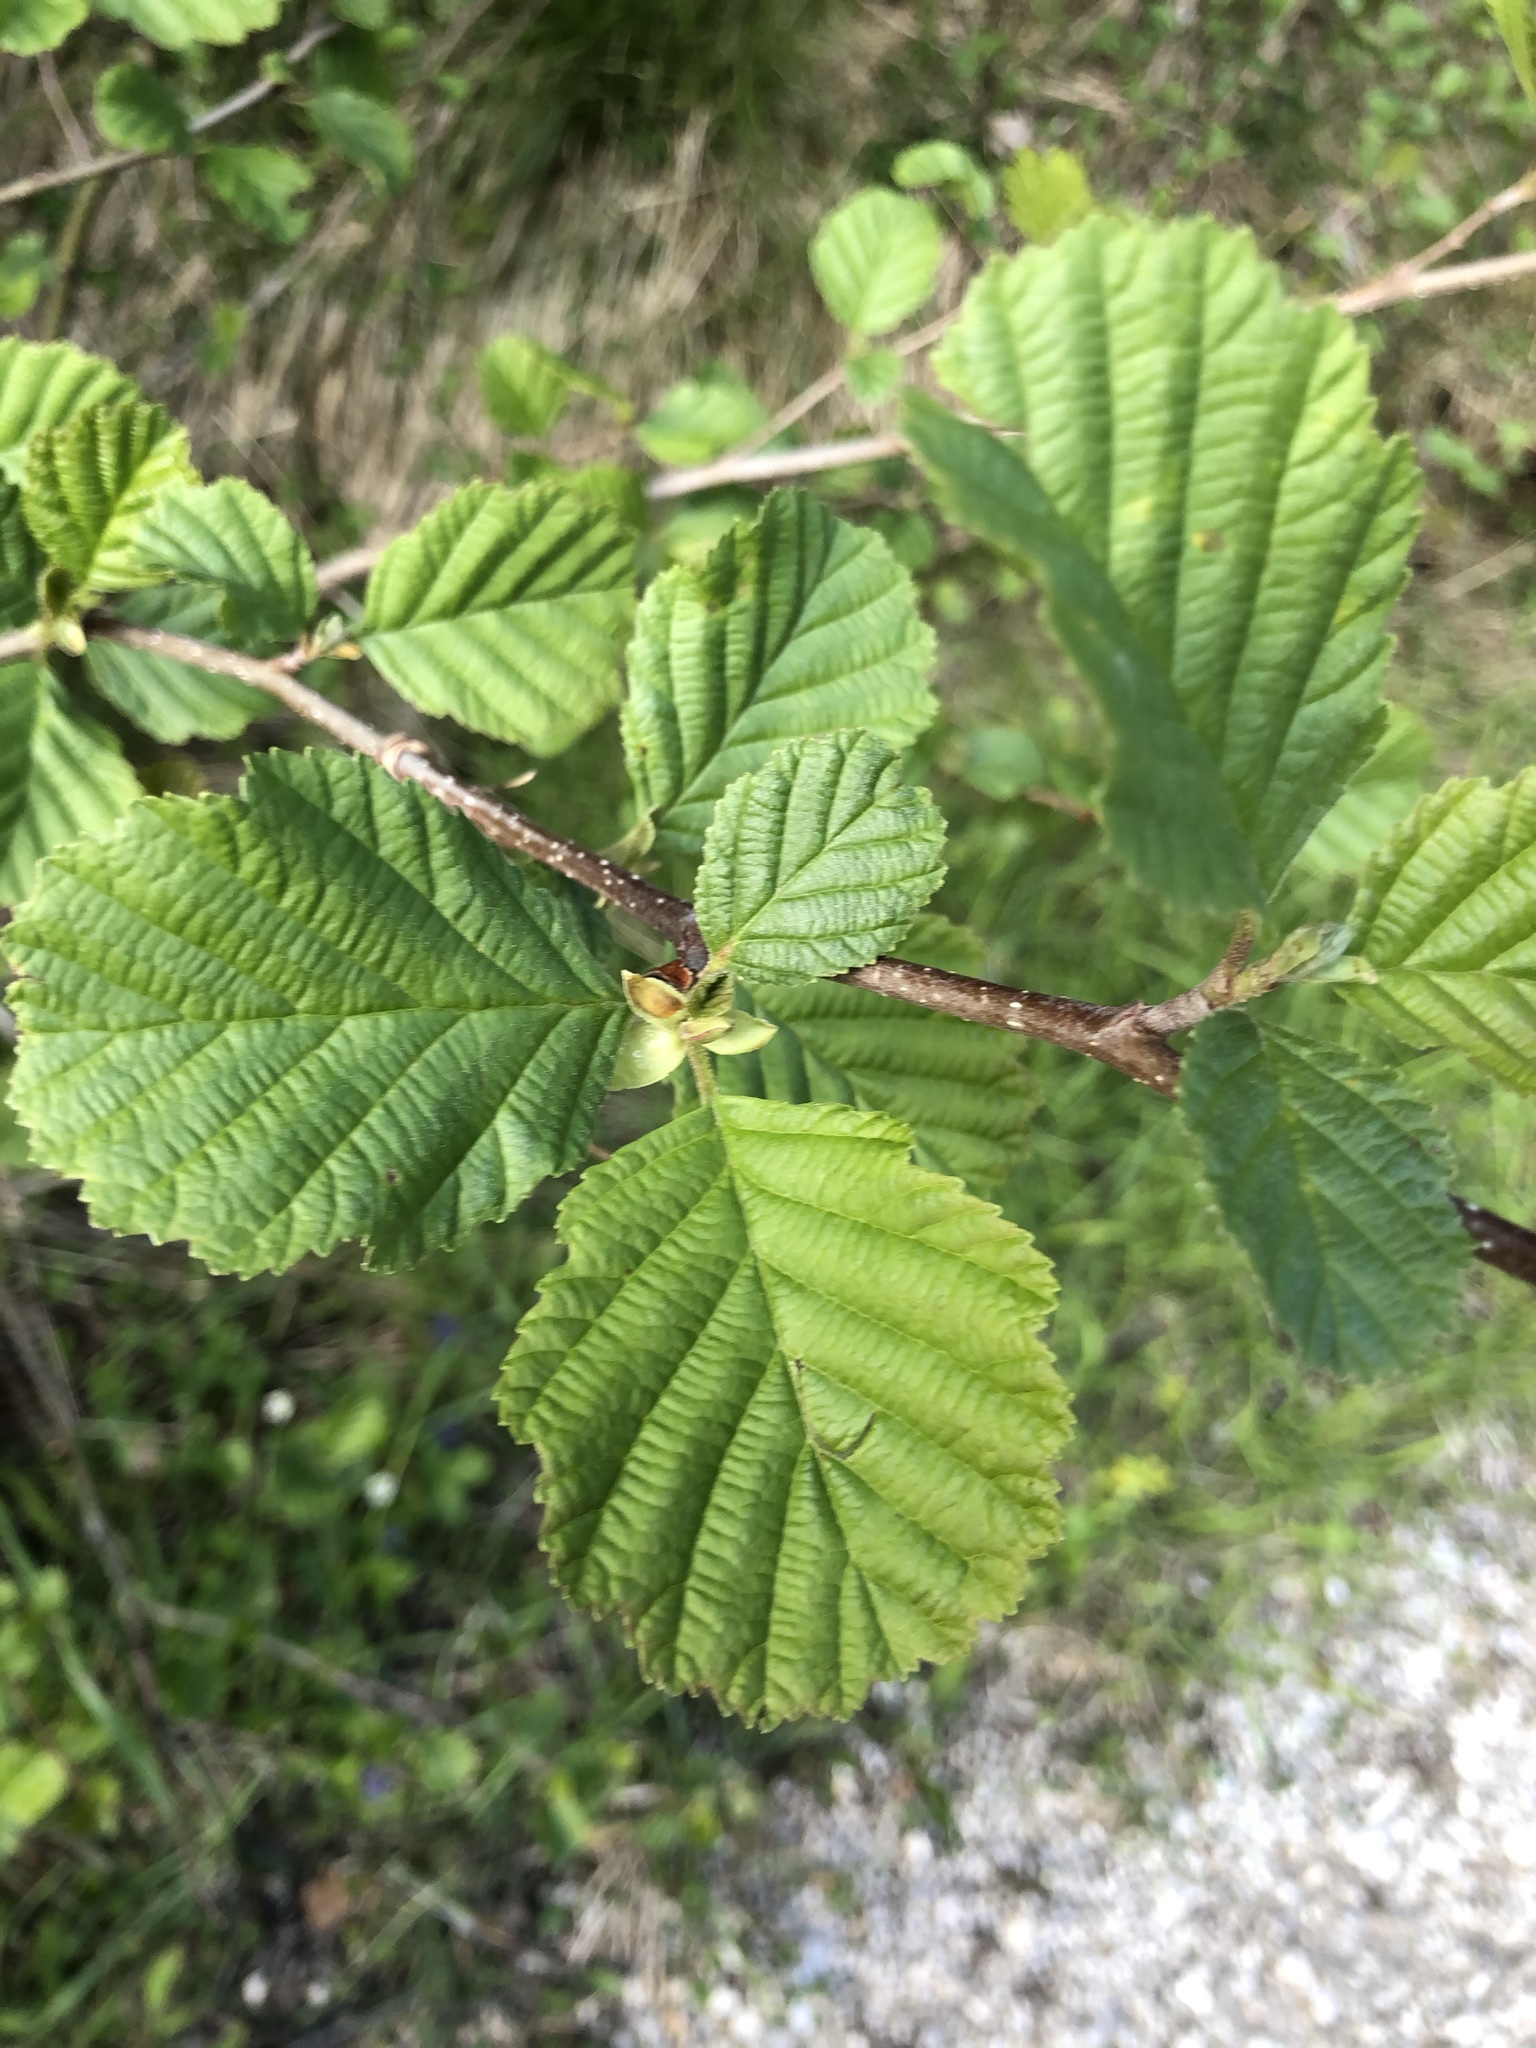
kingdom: Plantae
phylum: Tracheophyta
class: Magnoliopsida
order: Fagales
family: Betulaceae
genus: Alnus
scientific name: Alnus glutinosa
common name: Black alder
